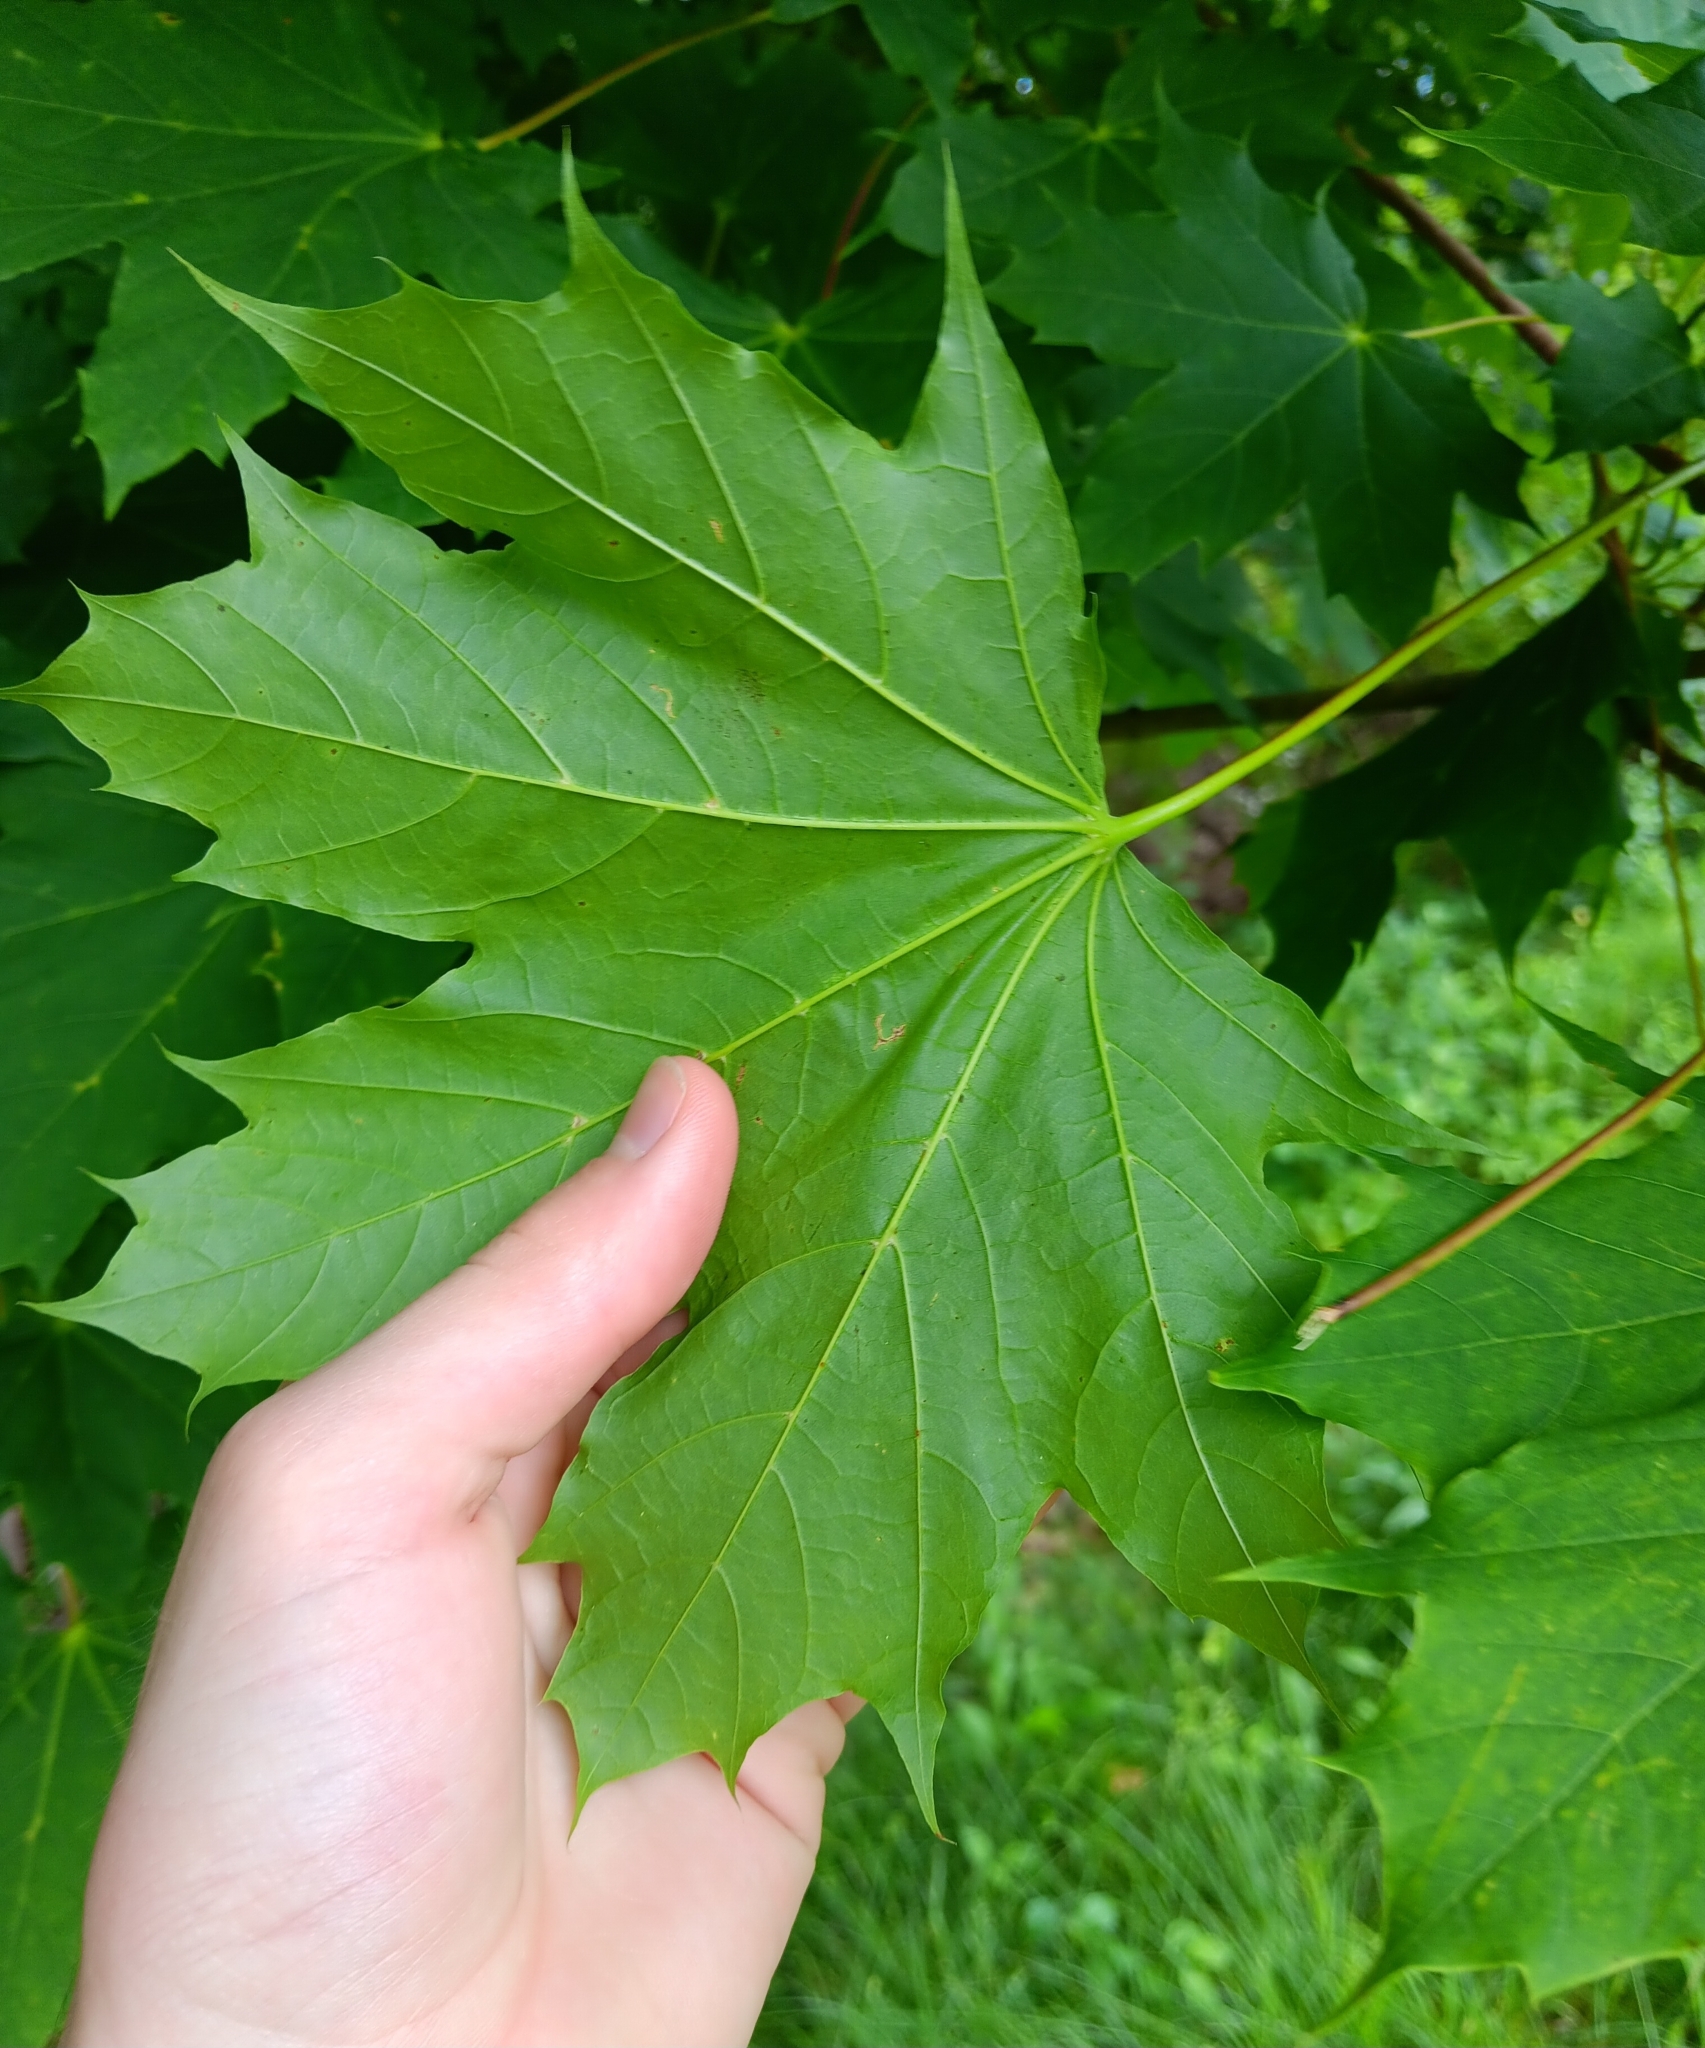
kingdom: Plantae
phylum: Tracheophyta
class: Magnoliopsida
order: Sapindales
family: Sapindaceae
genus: Acer
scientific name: Acer platanoides
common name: Norway maple
